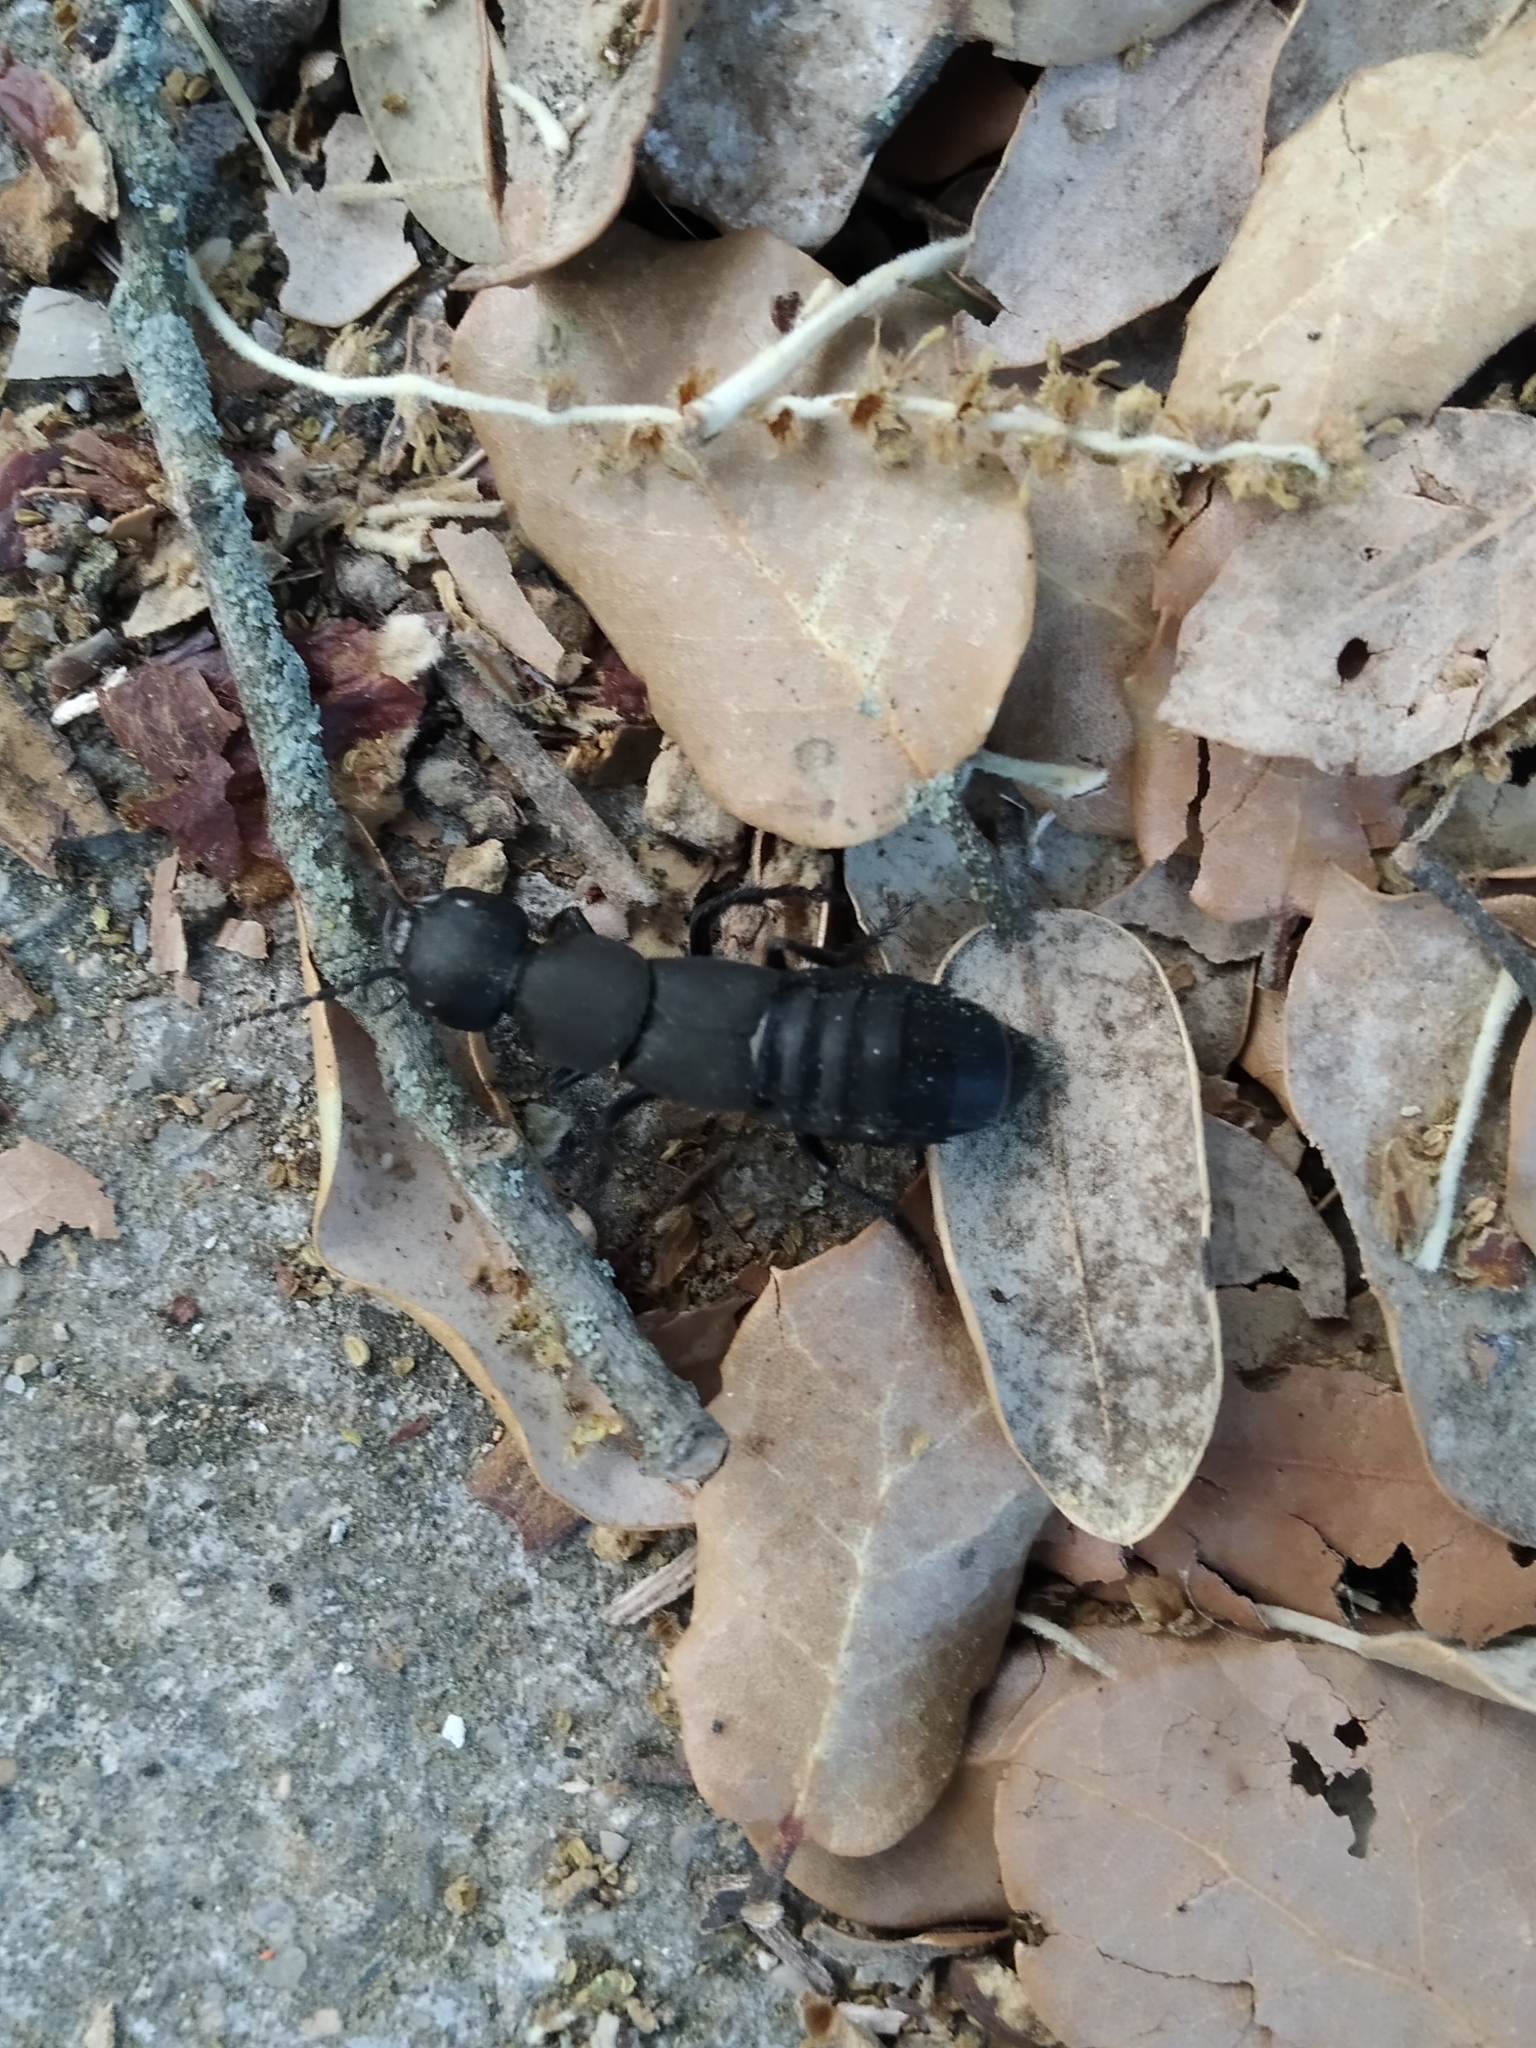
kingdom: Animalia
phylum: Arthropoda
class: Insecta
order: Coleoptera
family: Staphylinidae
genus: Ocypus
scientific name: Ocypus olens
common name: Devil's coach-horse
